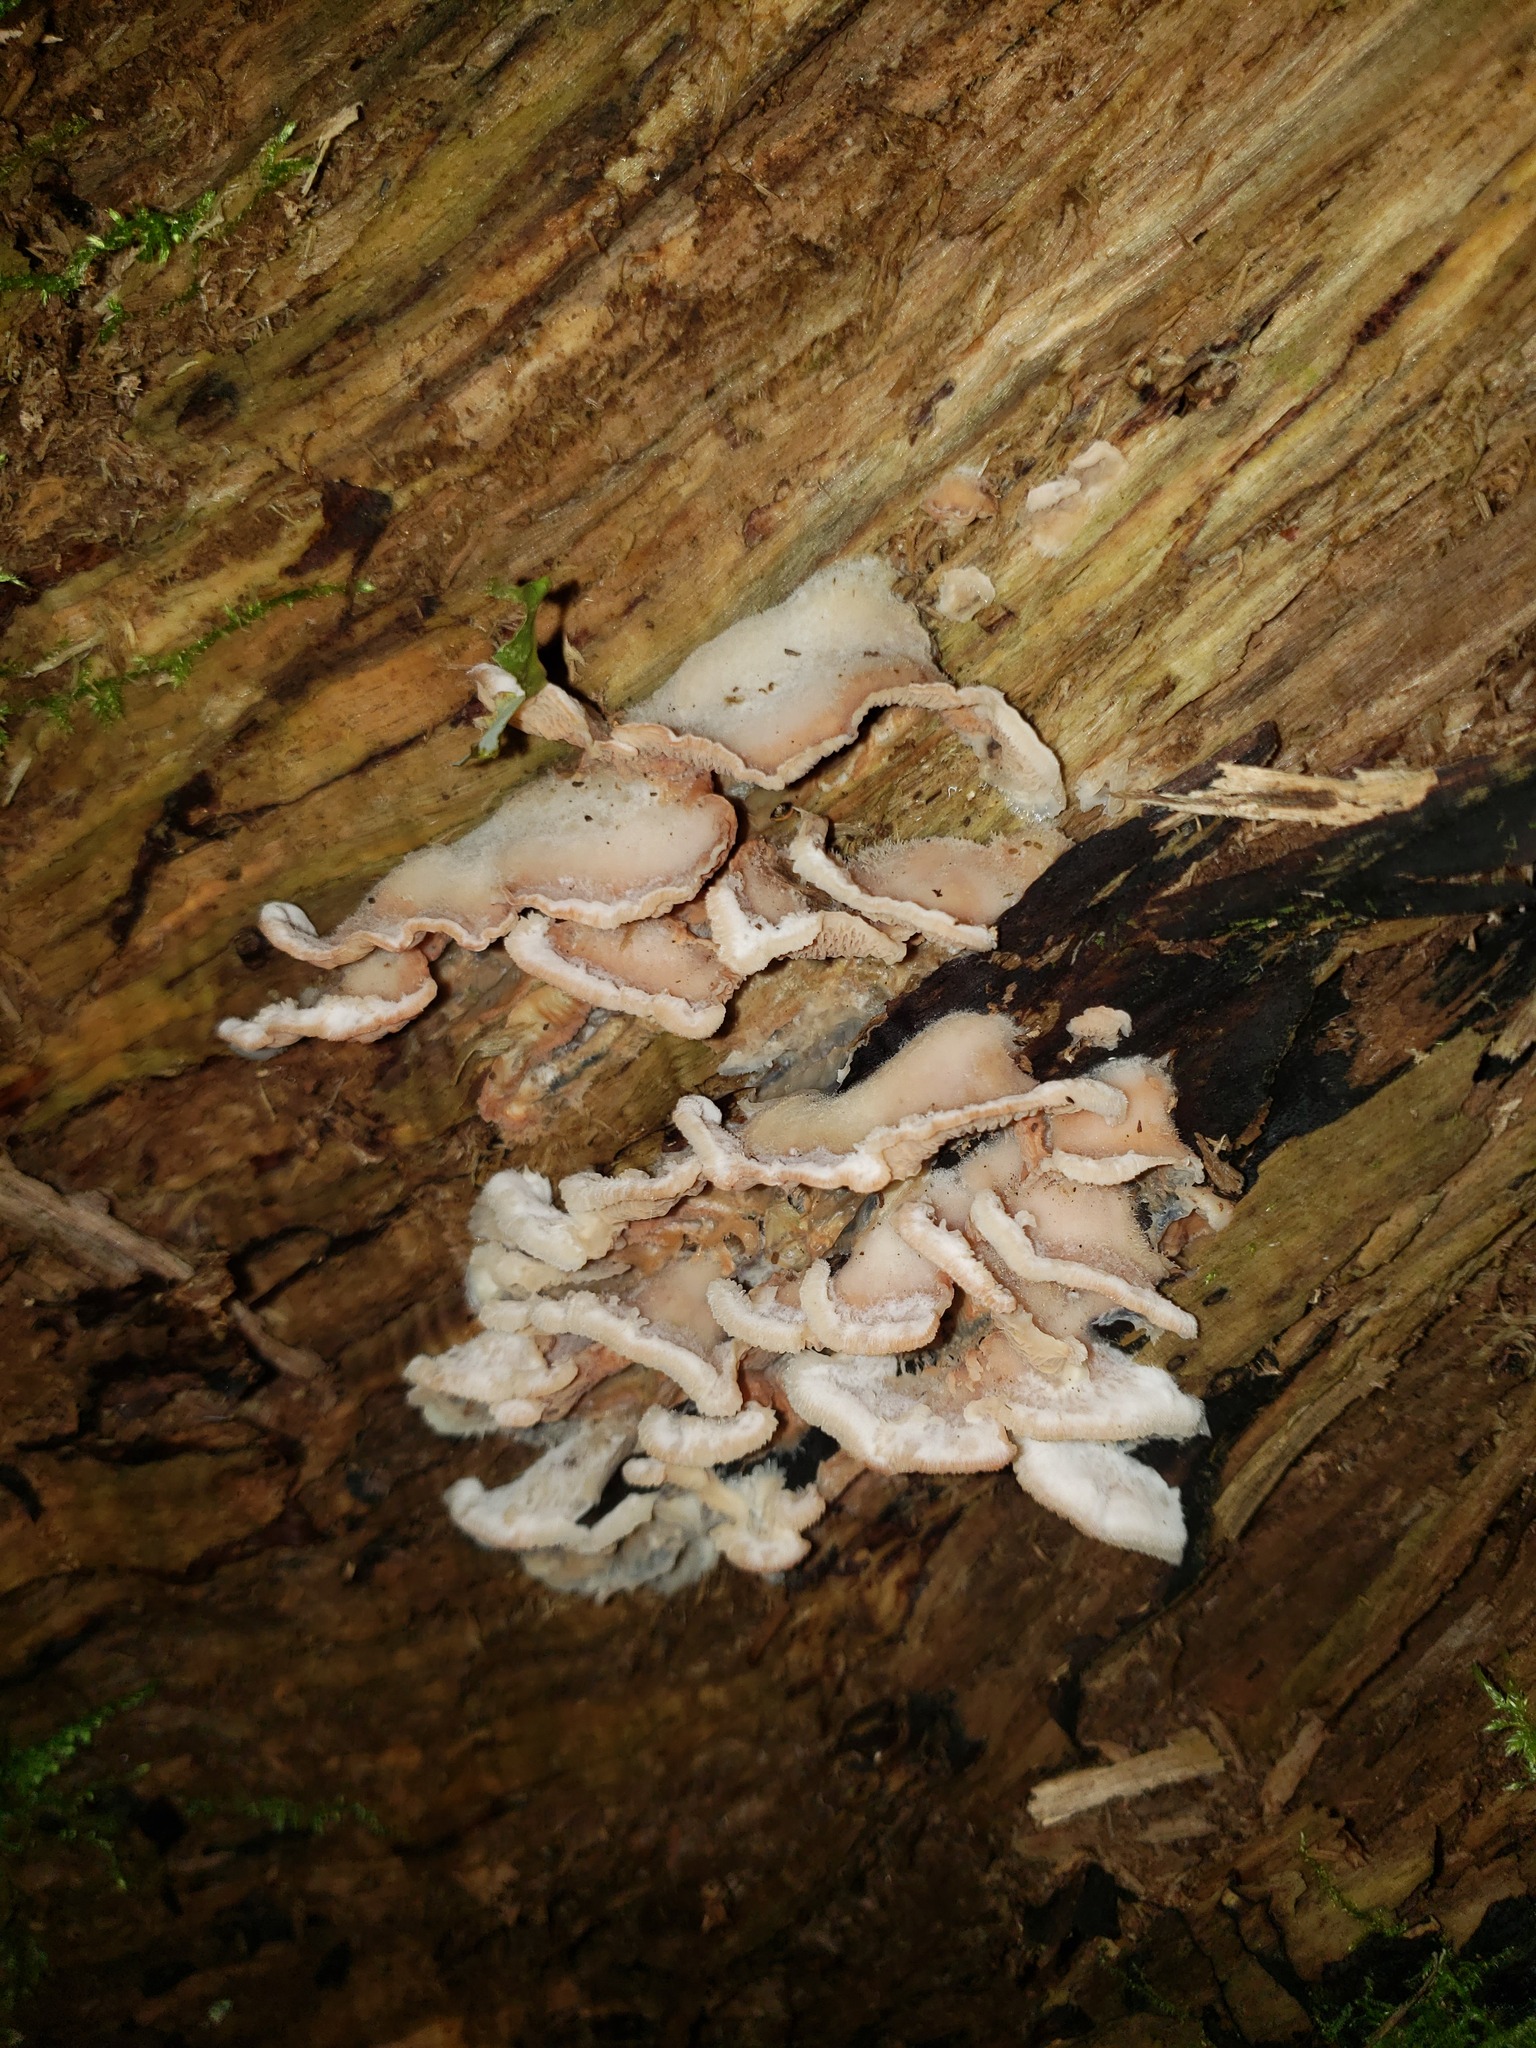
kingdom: Fungi
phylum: Basidiomycota
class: Agaricomycetes
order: Polyporales
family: Meruliaceae
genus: Phlebia
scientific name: Phlebia tremellosa
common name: Jelly rot
